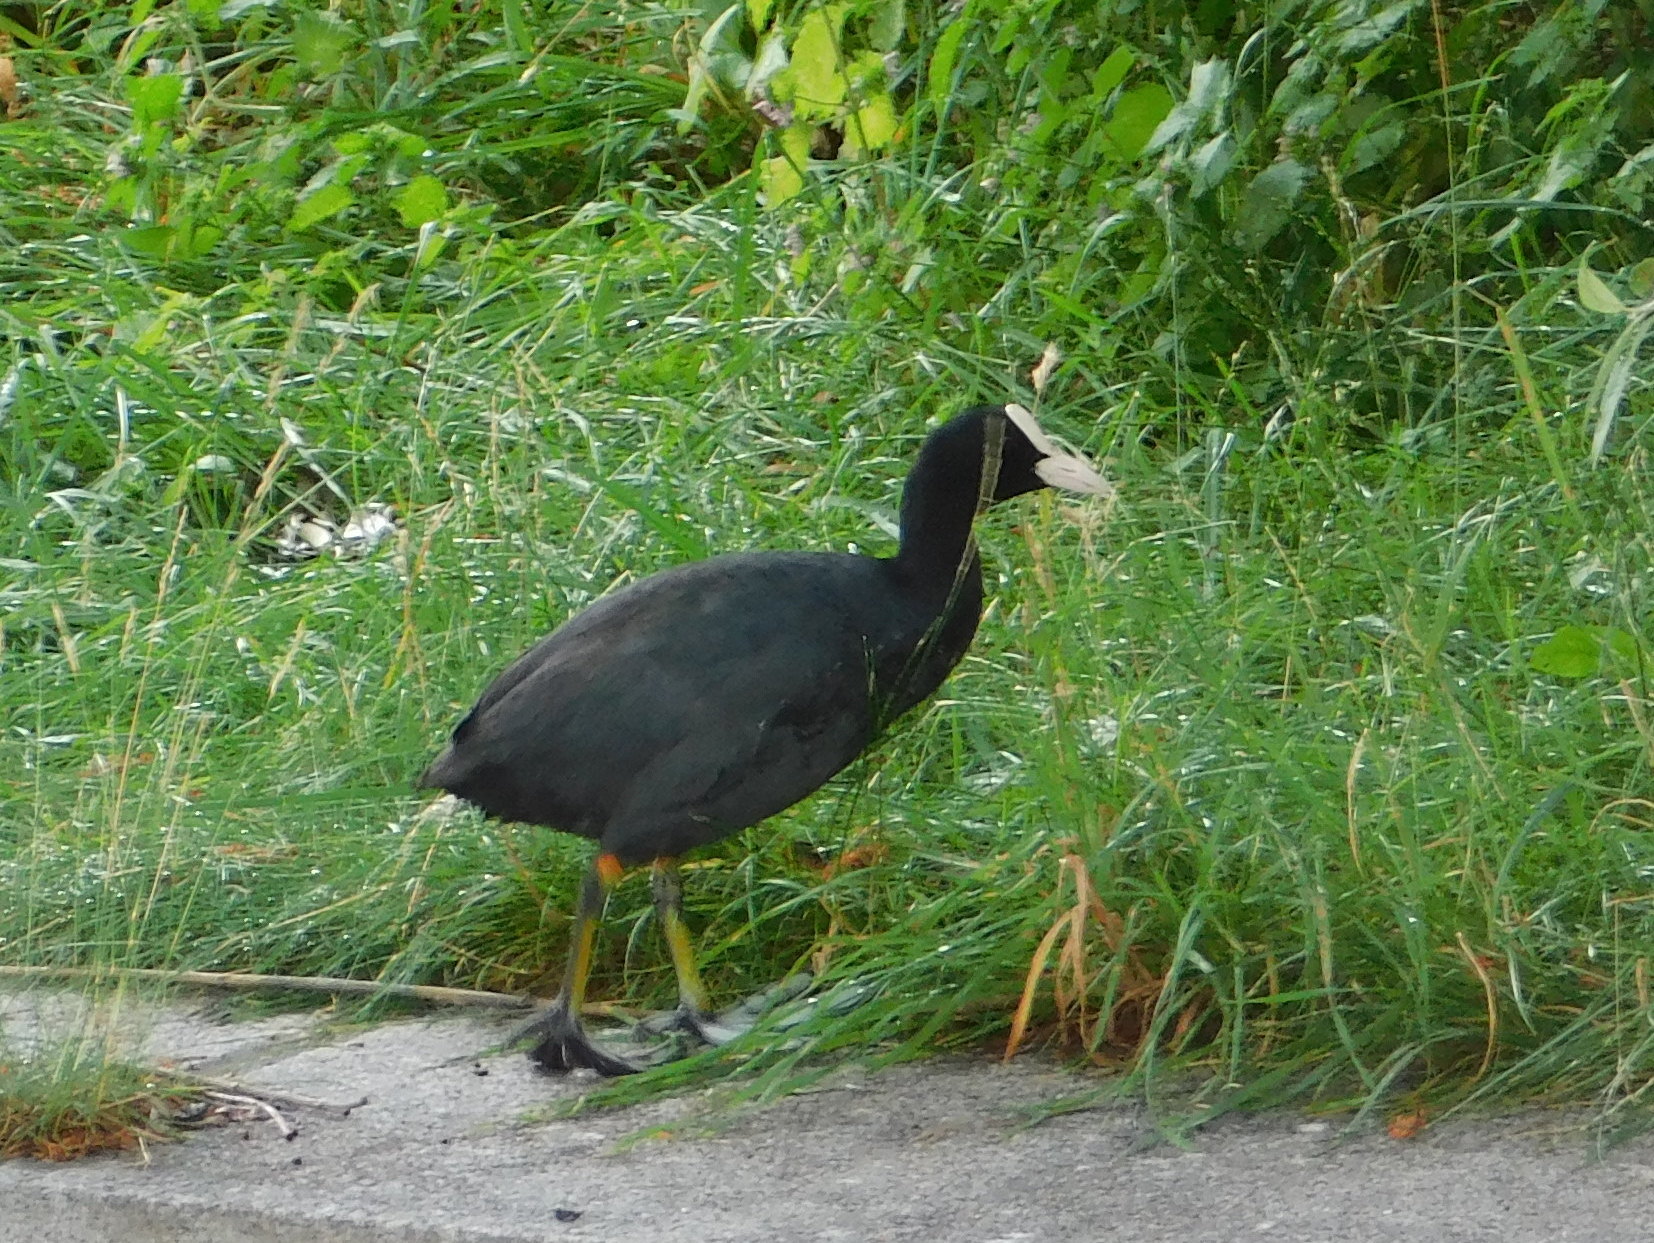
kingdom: Animalia
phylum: Chordata
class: Aves
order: Gruiformes
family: Rallidae
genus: Fulica
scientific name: Fulica atra
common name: Eurasian coot
